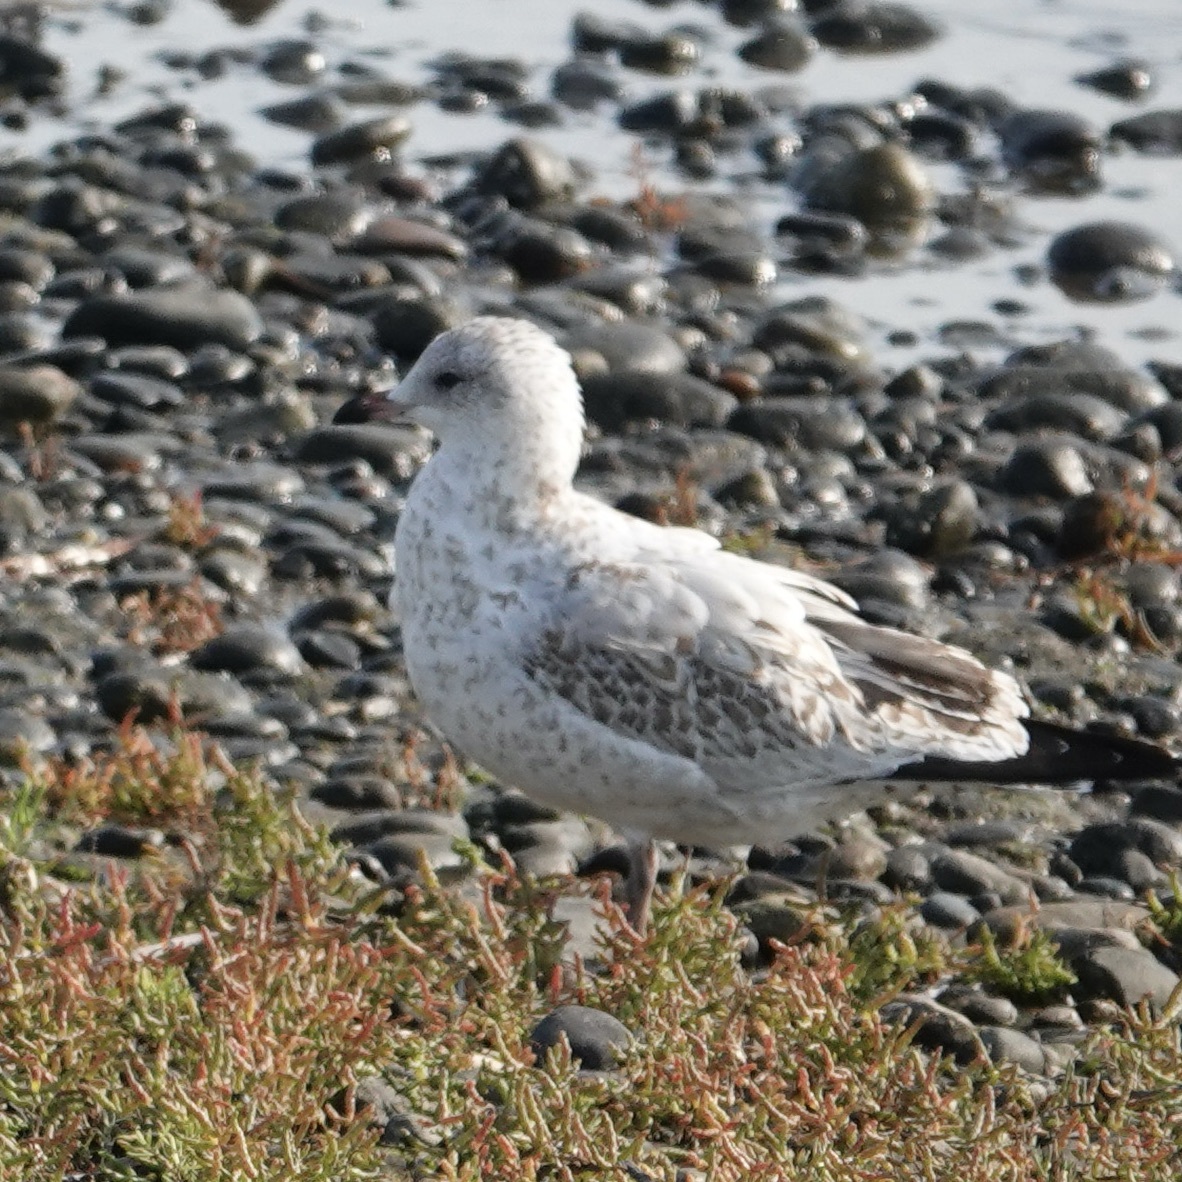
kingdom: Animalia
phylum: Chordata
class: Aves
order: Charadriiformes
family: Laridae
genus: Larus
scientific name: Larus delawarensis
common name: Ring-billed gull
